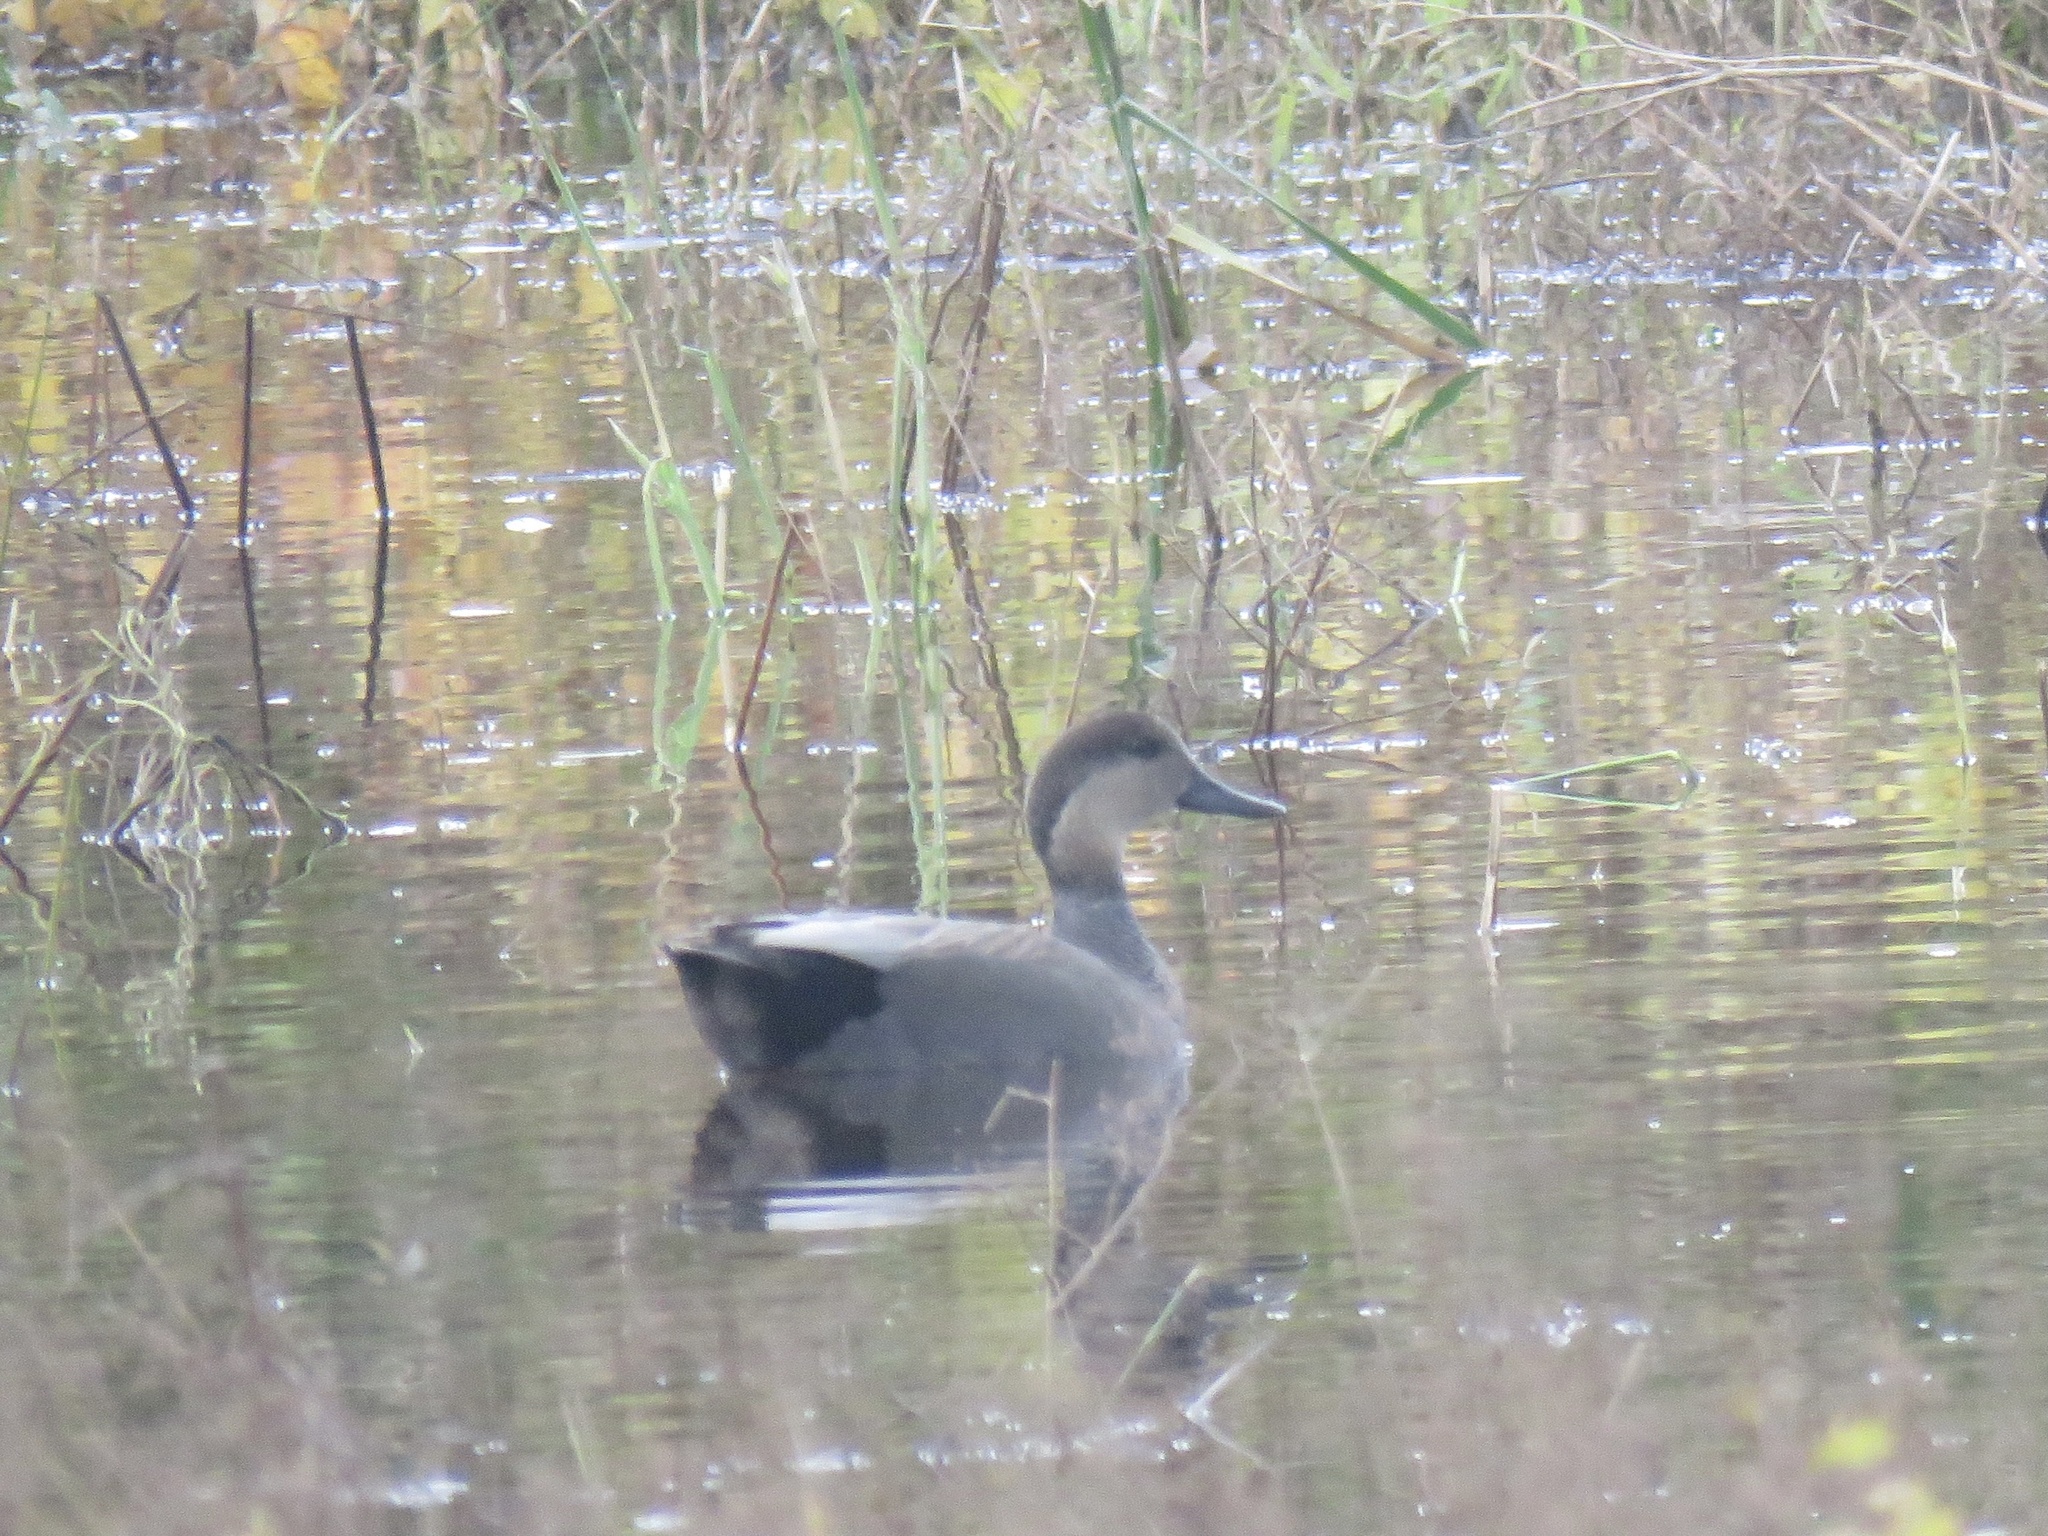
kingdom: Animalia
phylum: Chordata
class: Aves
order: Anseriformes
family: Anatidae
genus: Mareca
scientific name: Mareca strepera
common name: Gadwall
